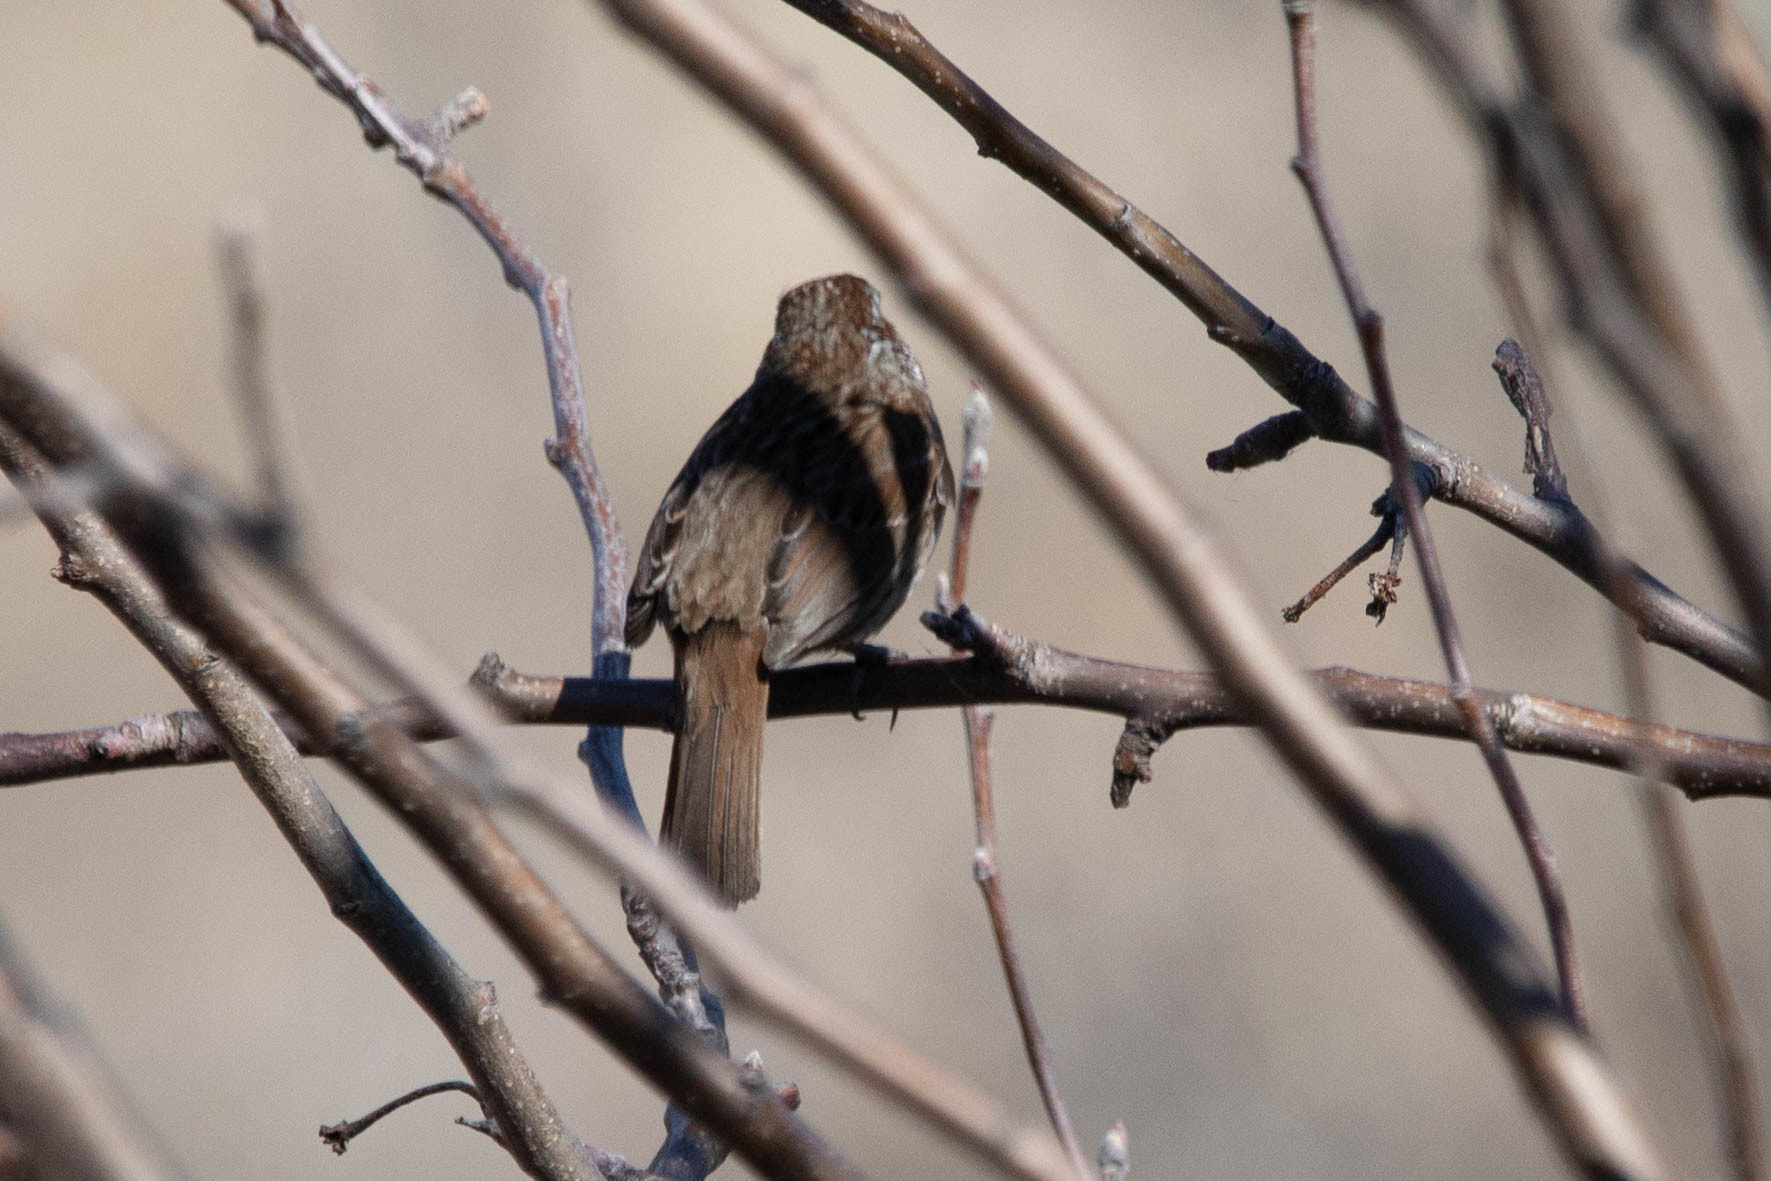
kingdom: Animalia
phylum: Chordata
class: Aves
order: Passeriformes
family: Passerellidae
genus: Melospiza
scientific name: Melospiza melodia
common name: Song sparrow
